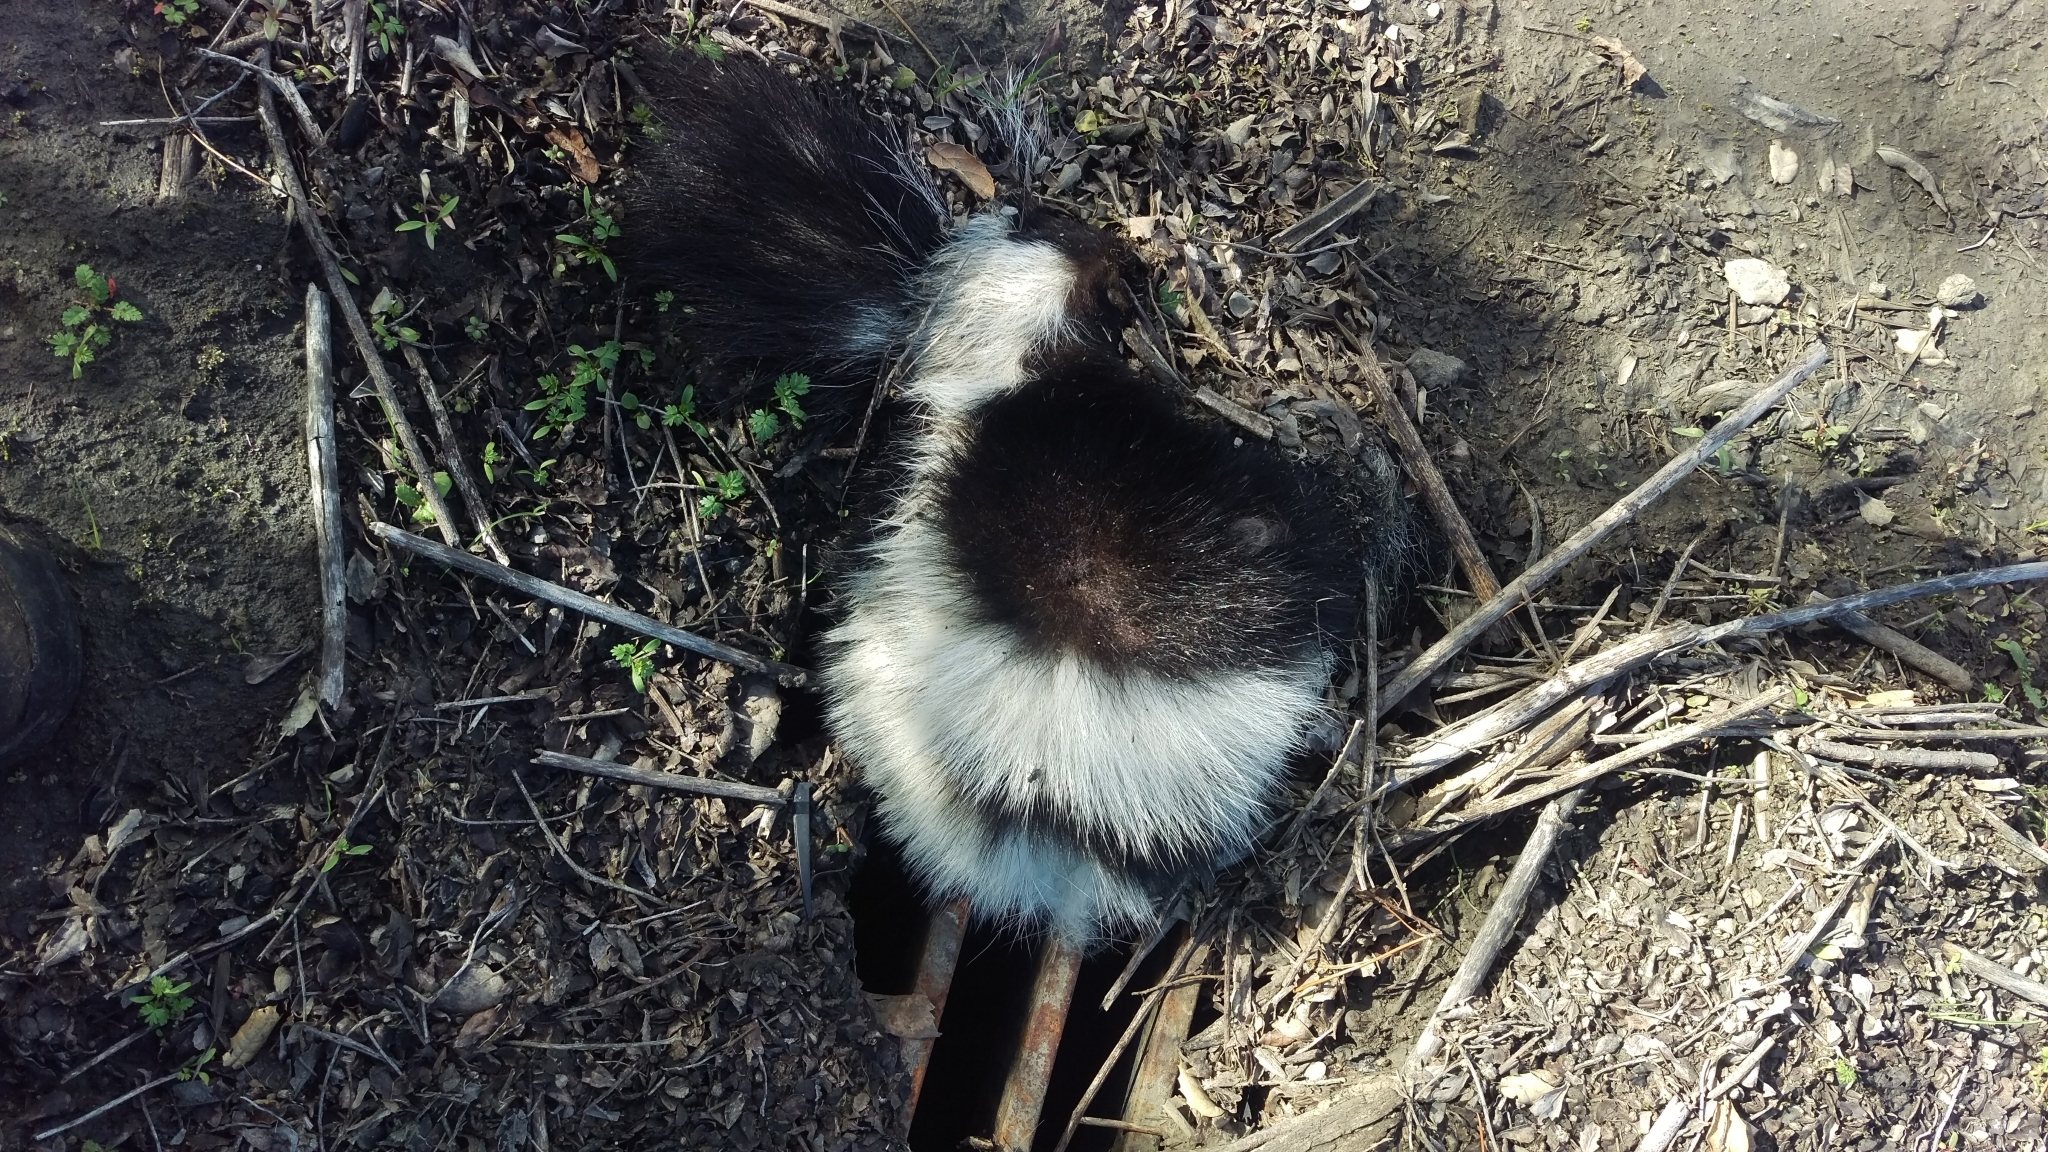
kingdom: Animalia
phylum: Chordata
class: Mammalia
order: Carnivora
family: Mephitidae
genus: Mephitis
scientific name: Mephitis mephitis
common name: Striped skunk
